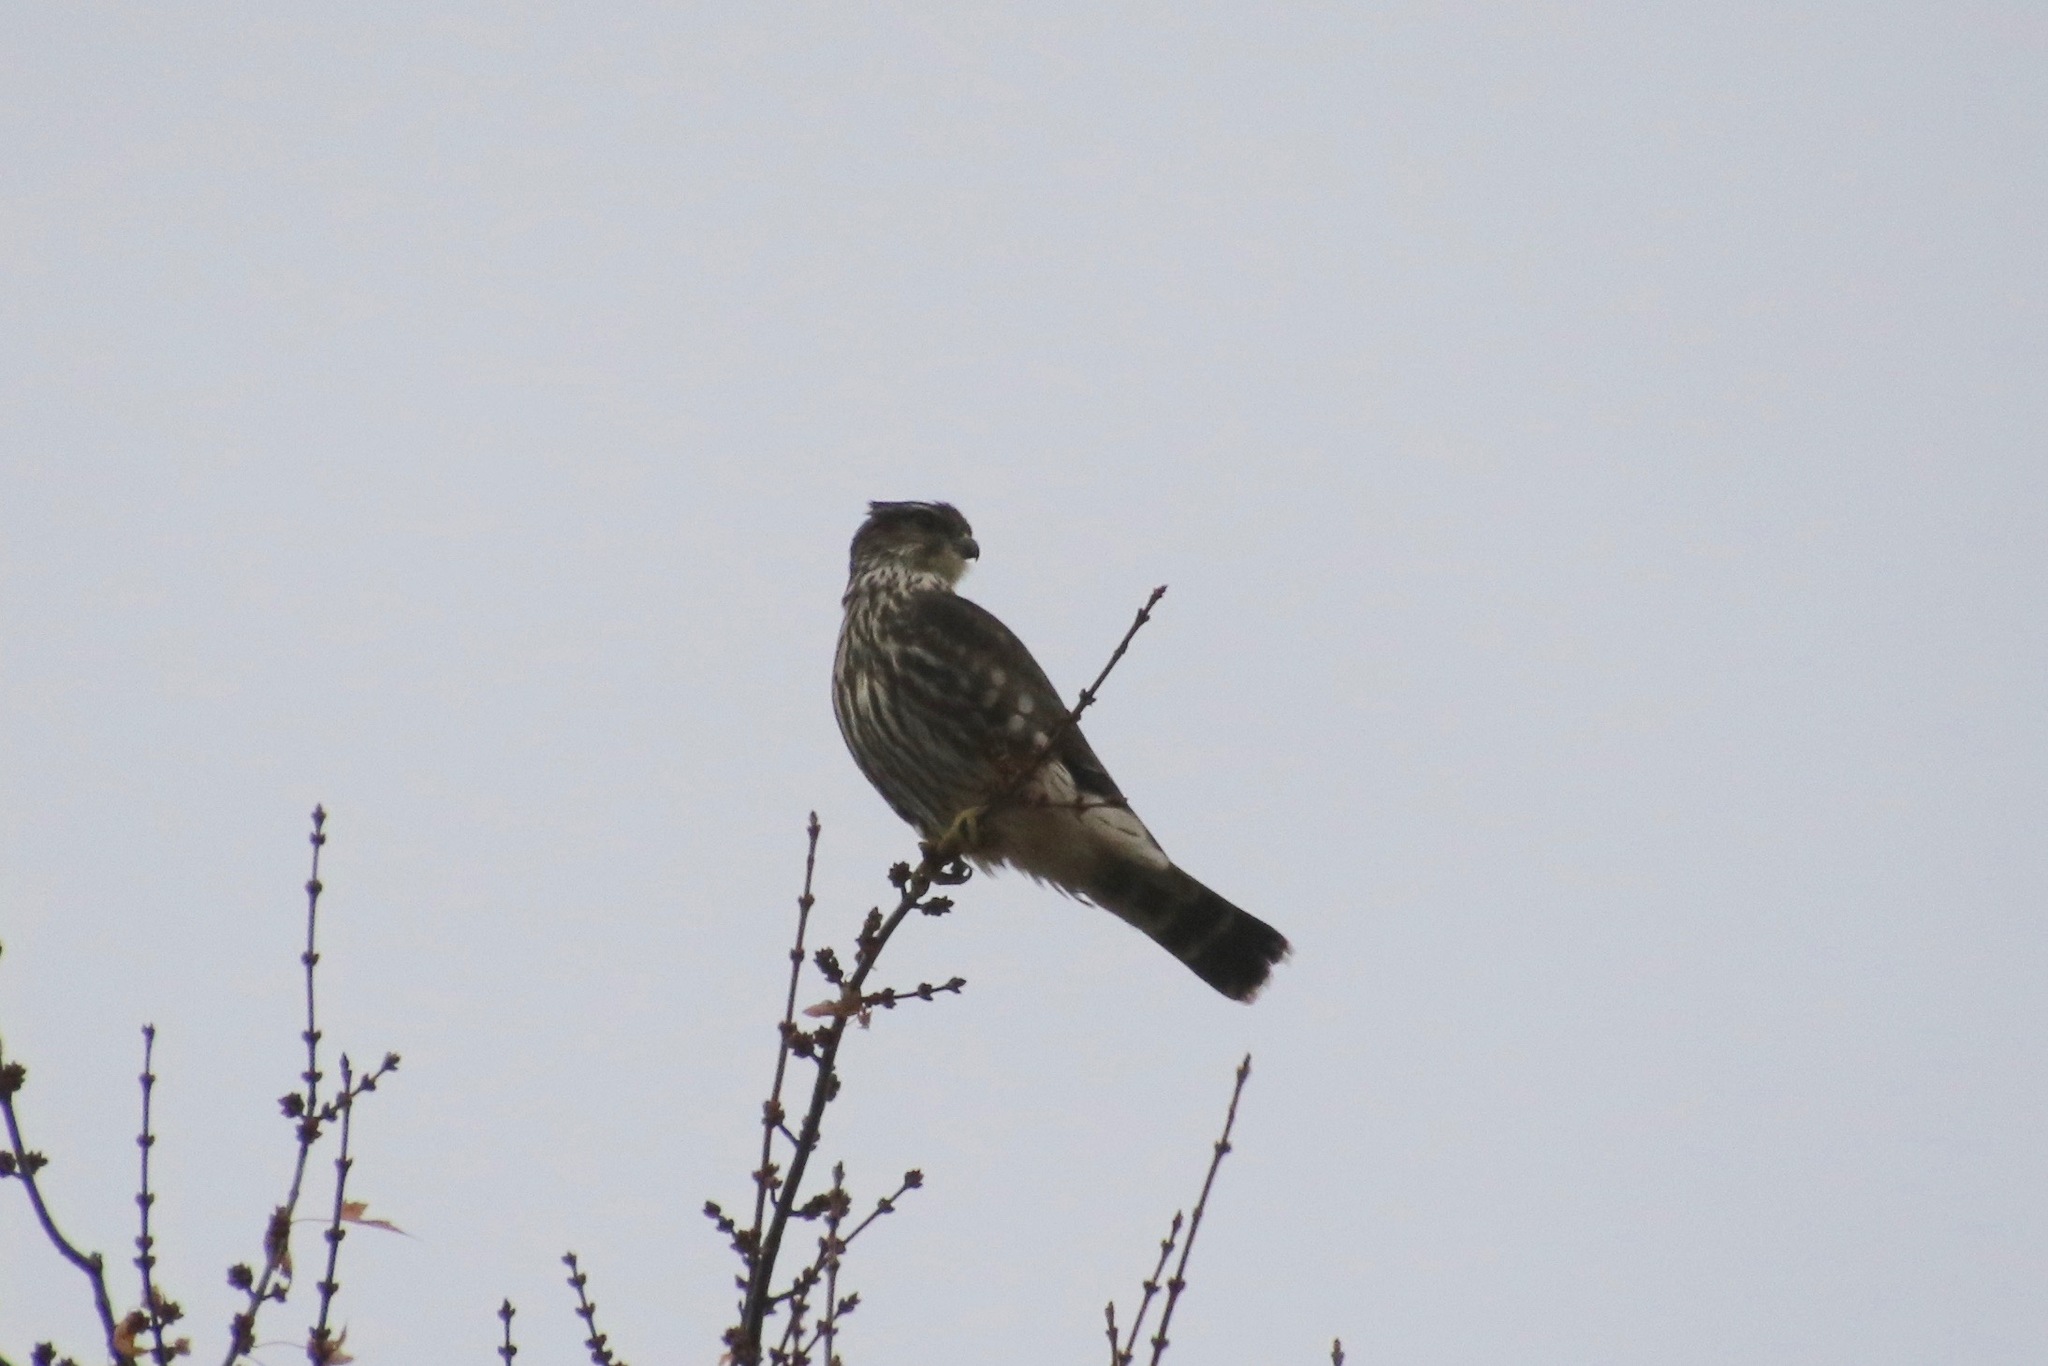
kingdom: Animalia
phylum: Chordata
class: Aves
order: Falconiformes
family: Falconidae
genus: Falco
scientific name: Falco columbarius
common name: Merlin
